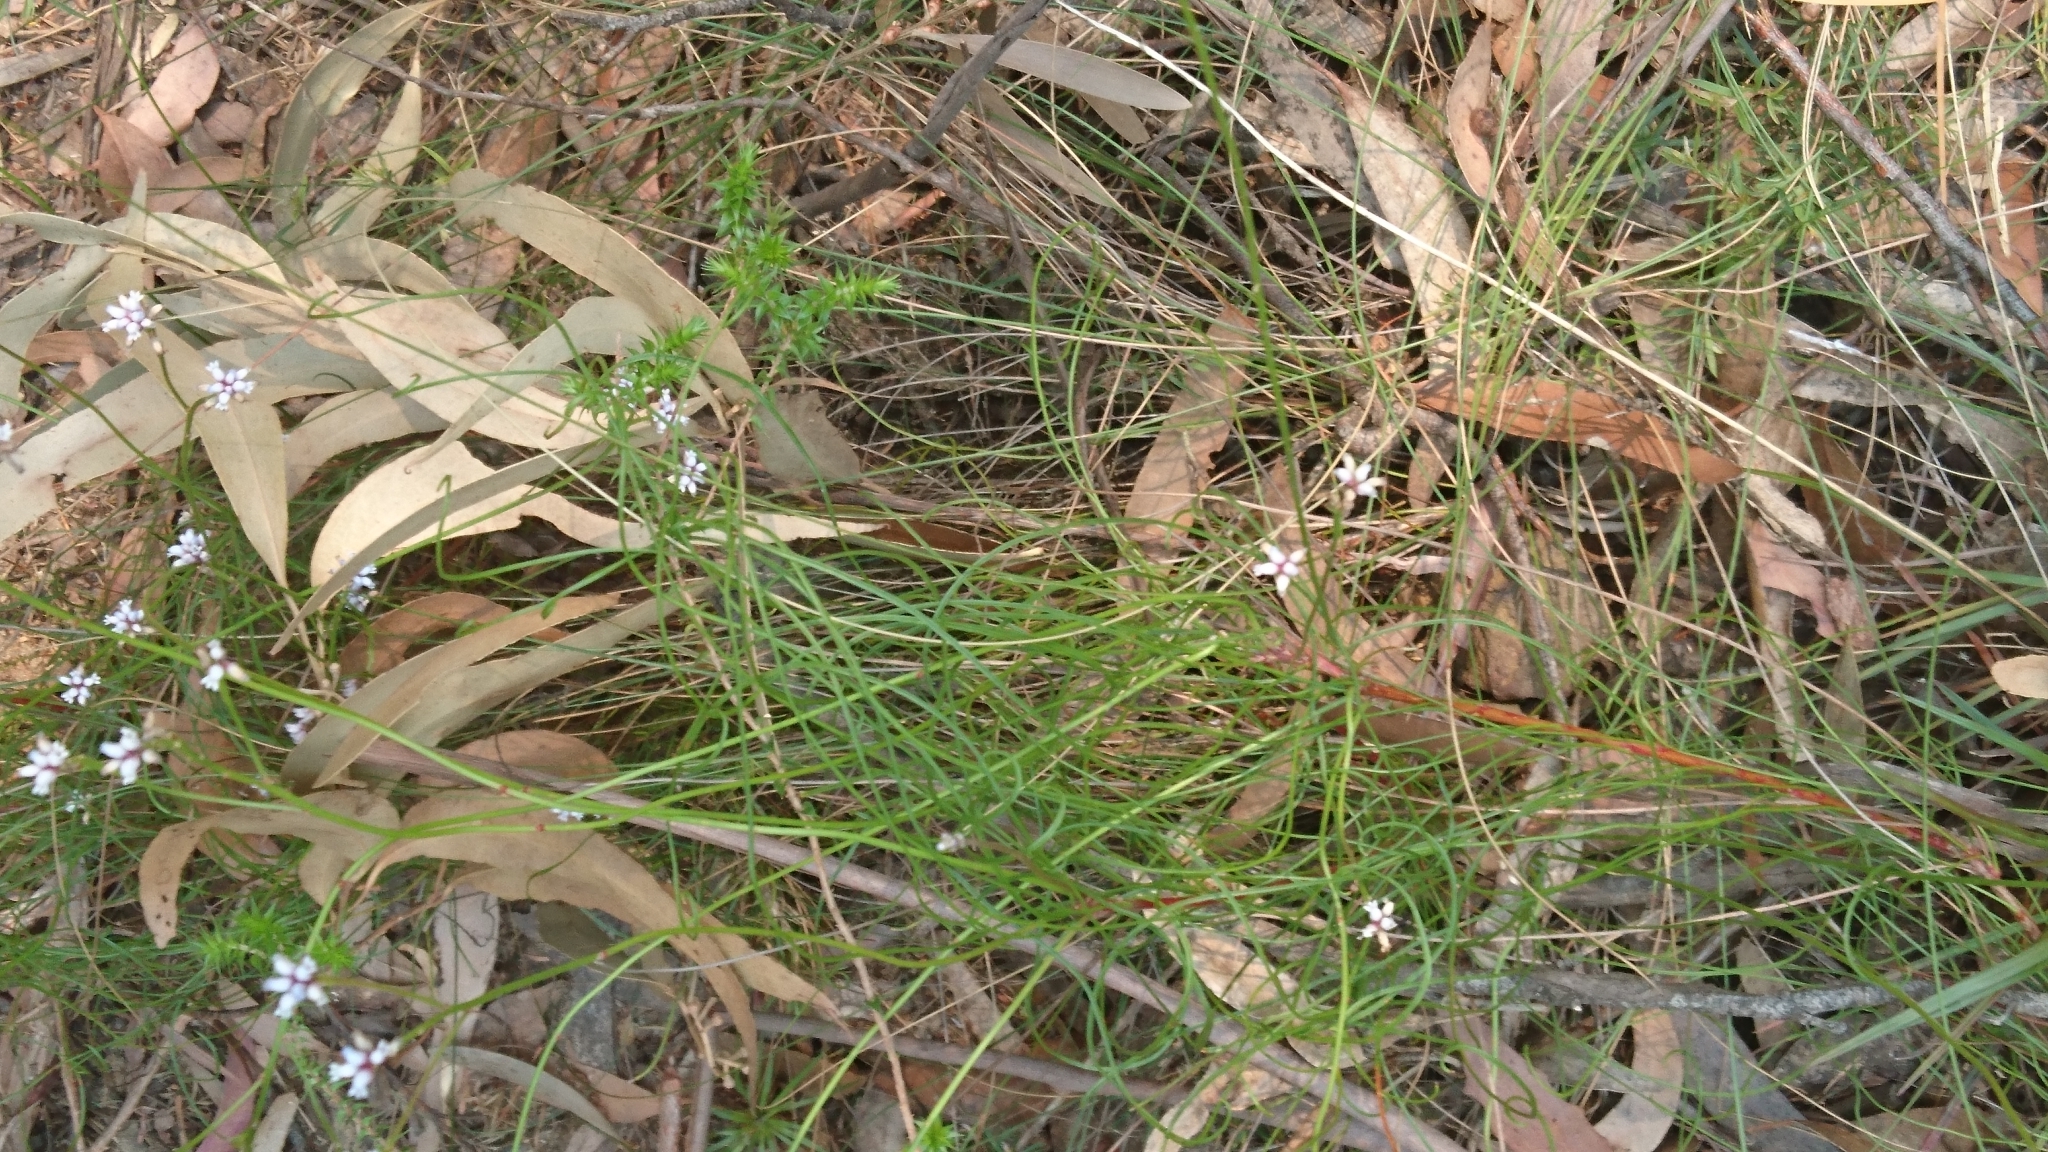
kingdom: Plantae
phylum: Tracheophyta
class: Magnoliopsida
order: Proteales
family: Proteaceae
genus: Conospermum
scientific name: Conospermum tenuifolium
